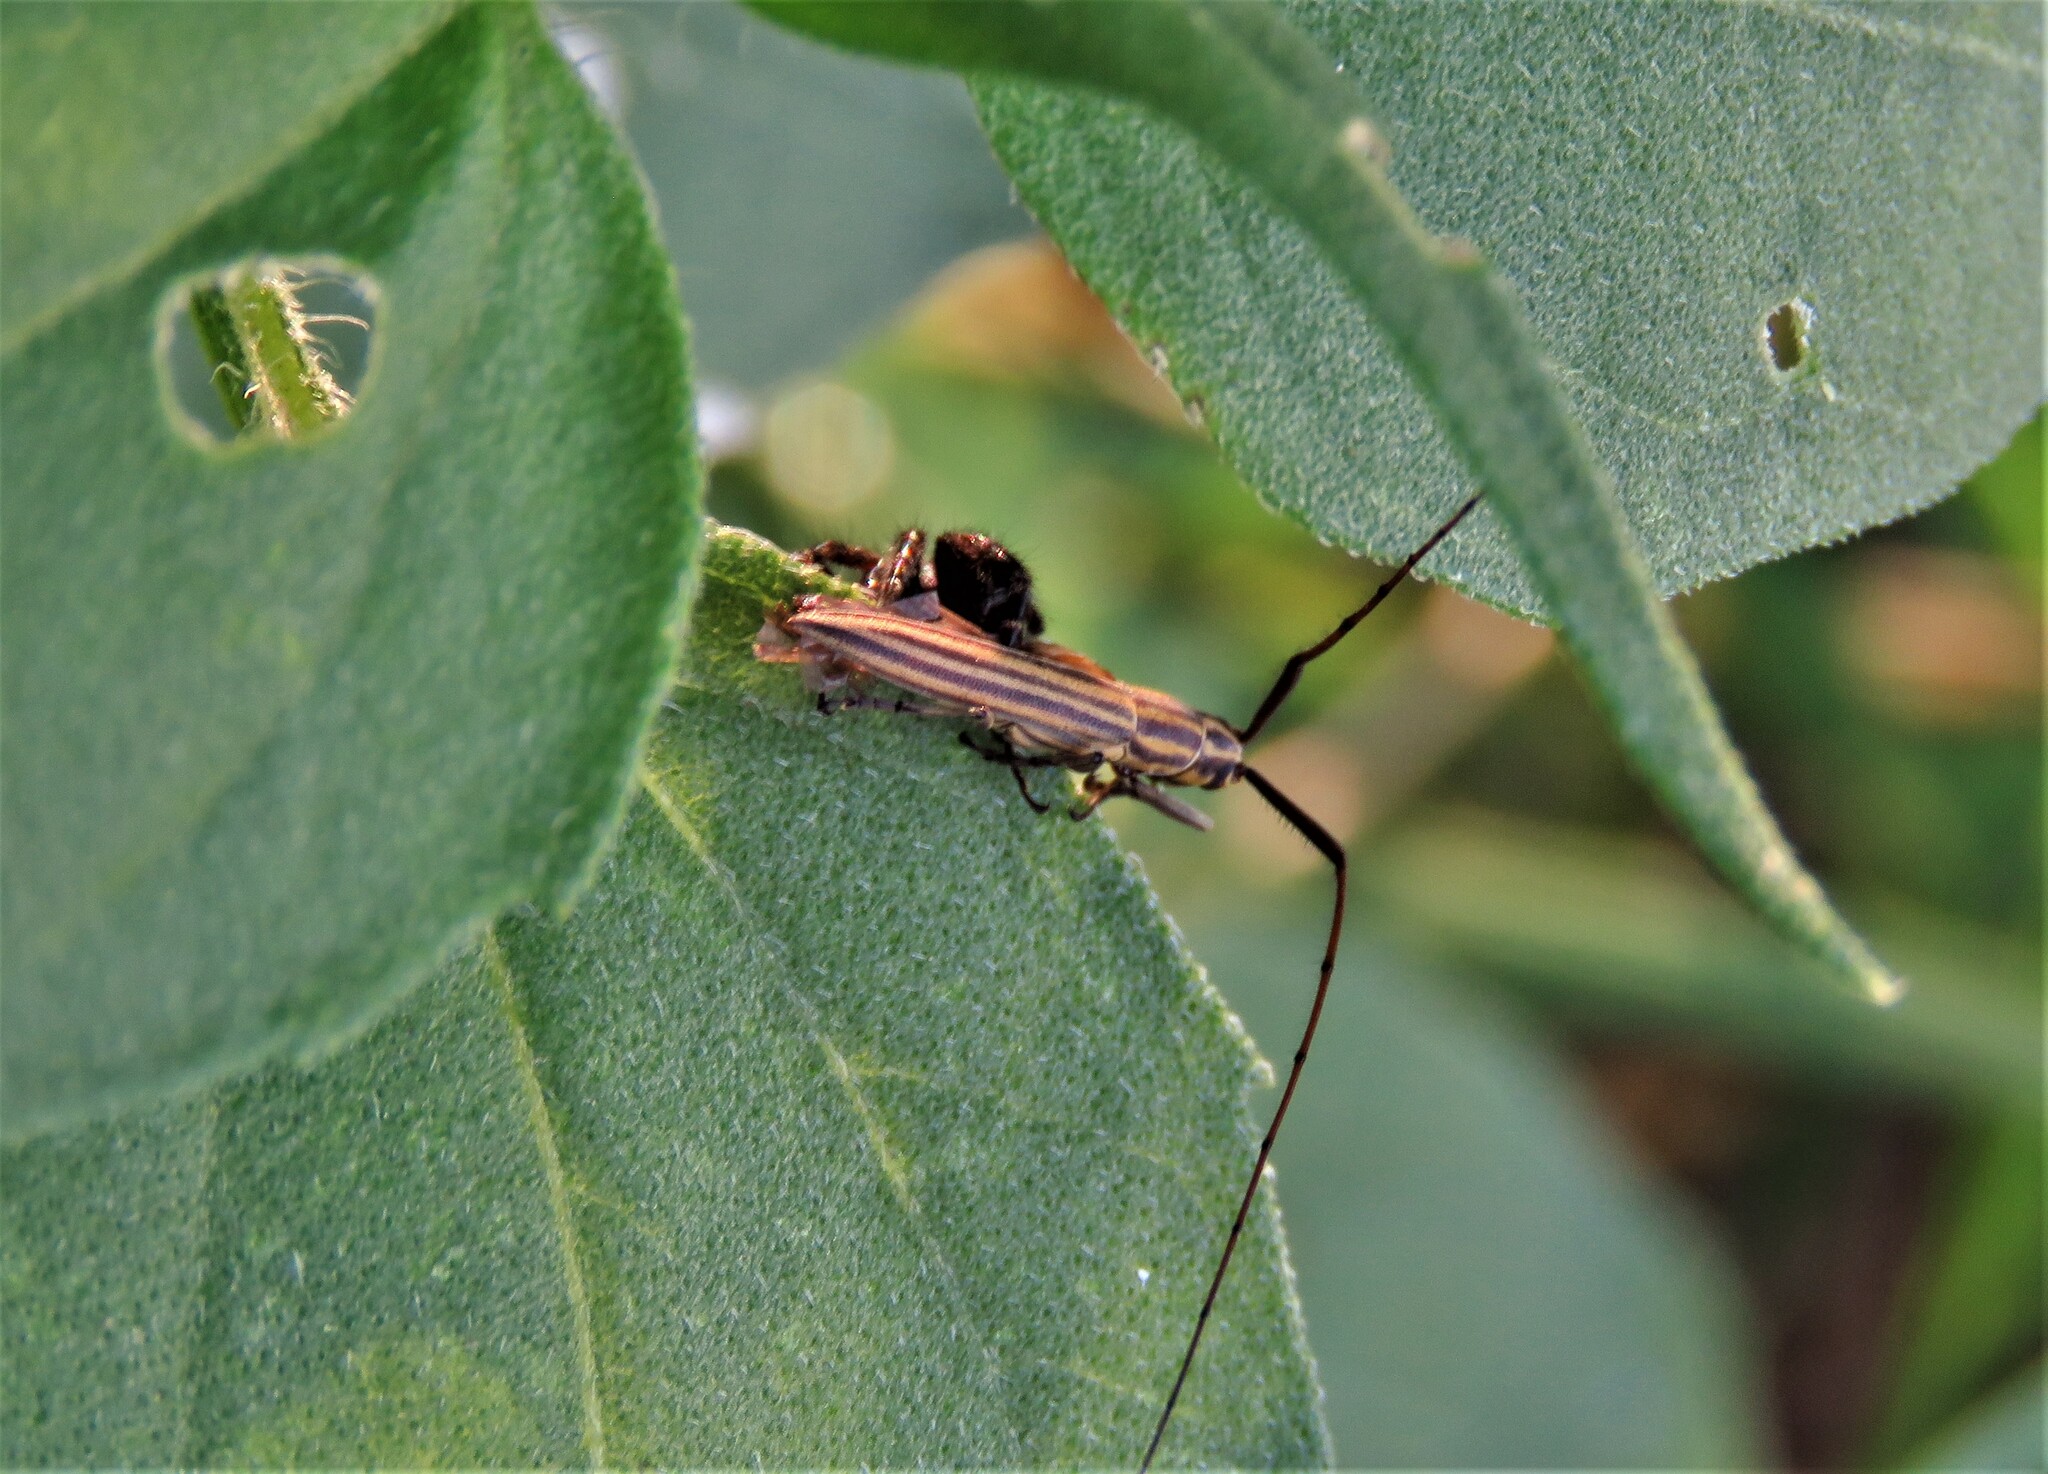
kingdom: Animalia
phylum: Arthropoda
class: Insecta
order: Coleoptera
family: Cerambycidae
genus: Hippopsis
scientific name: Hippopsis
